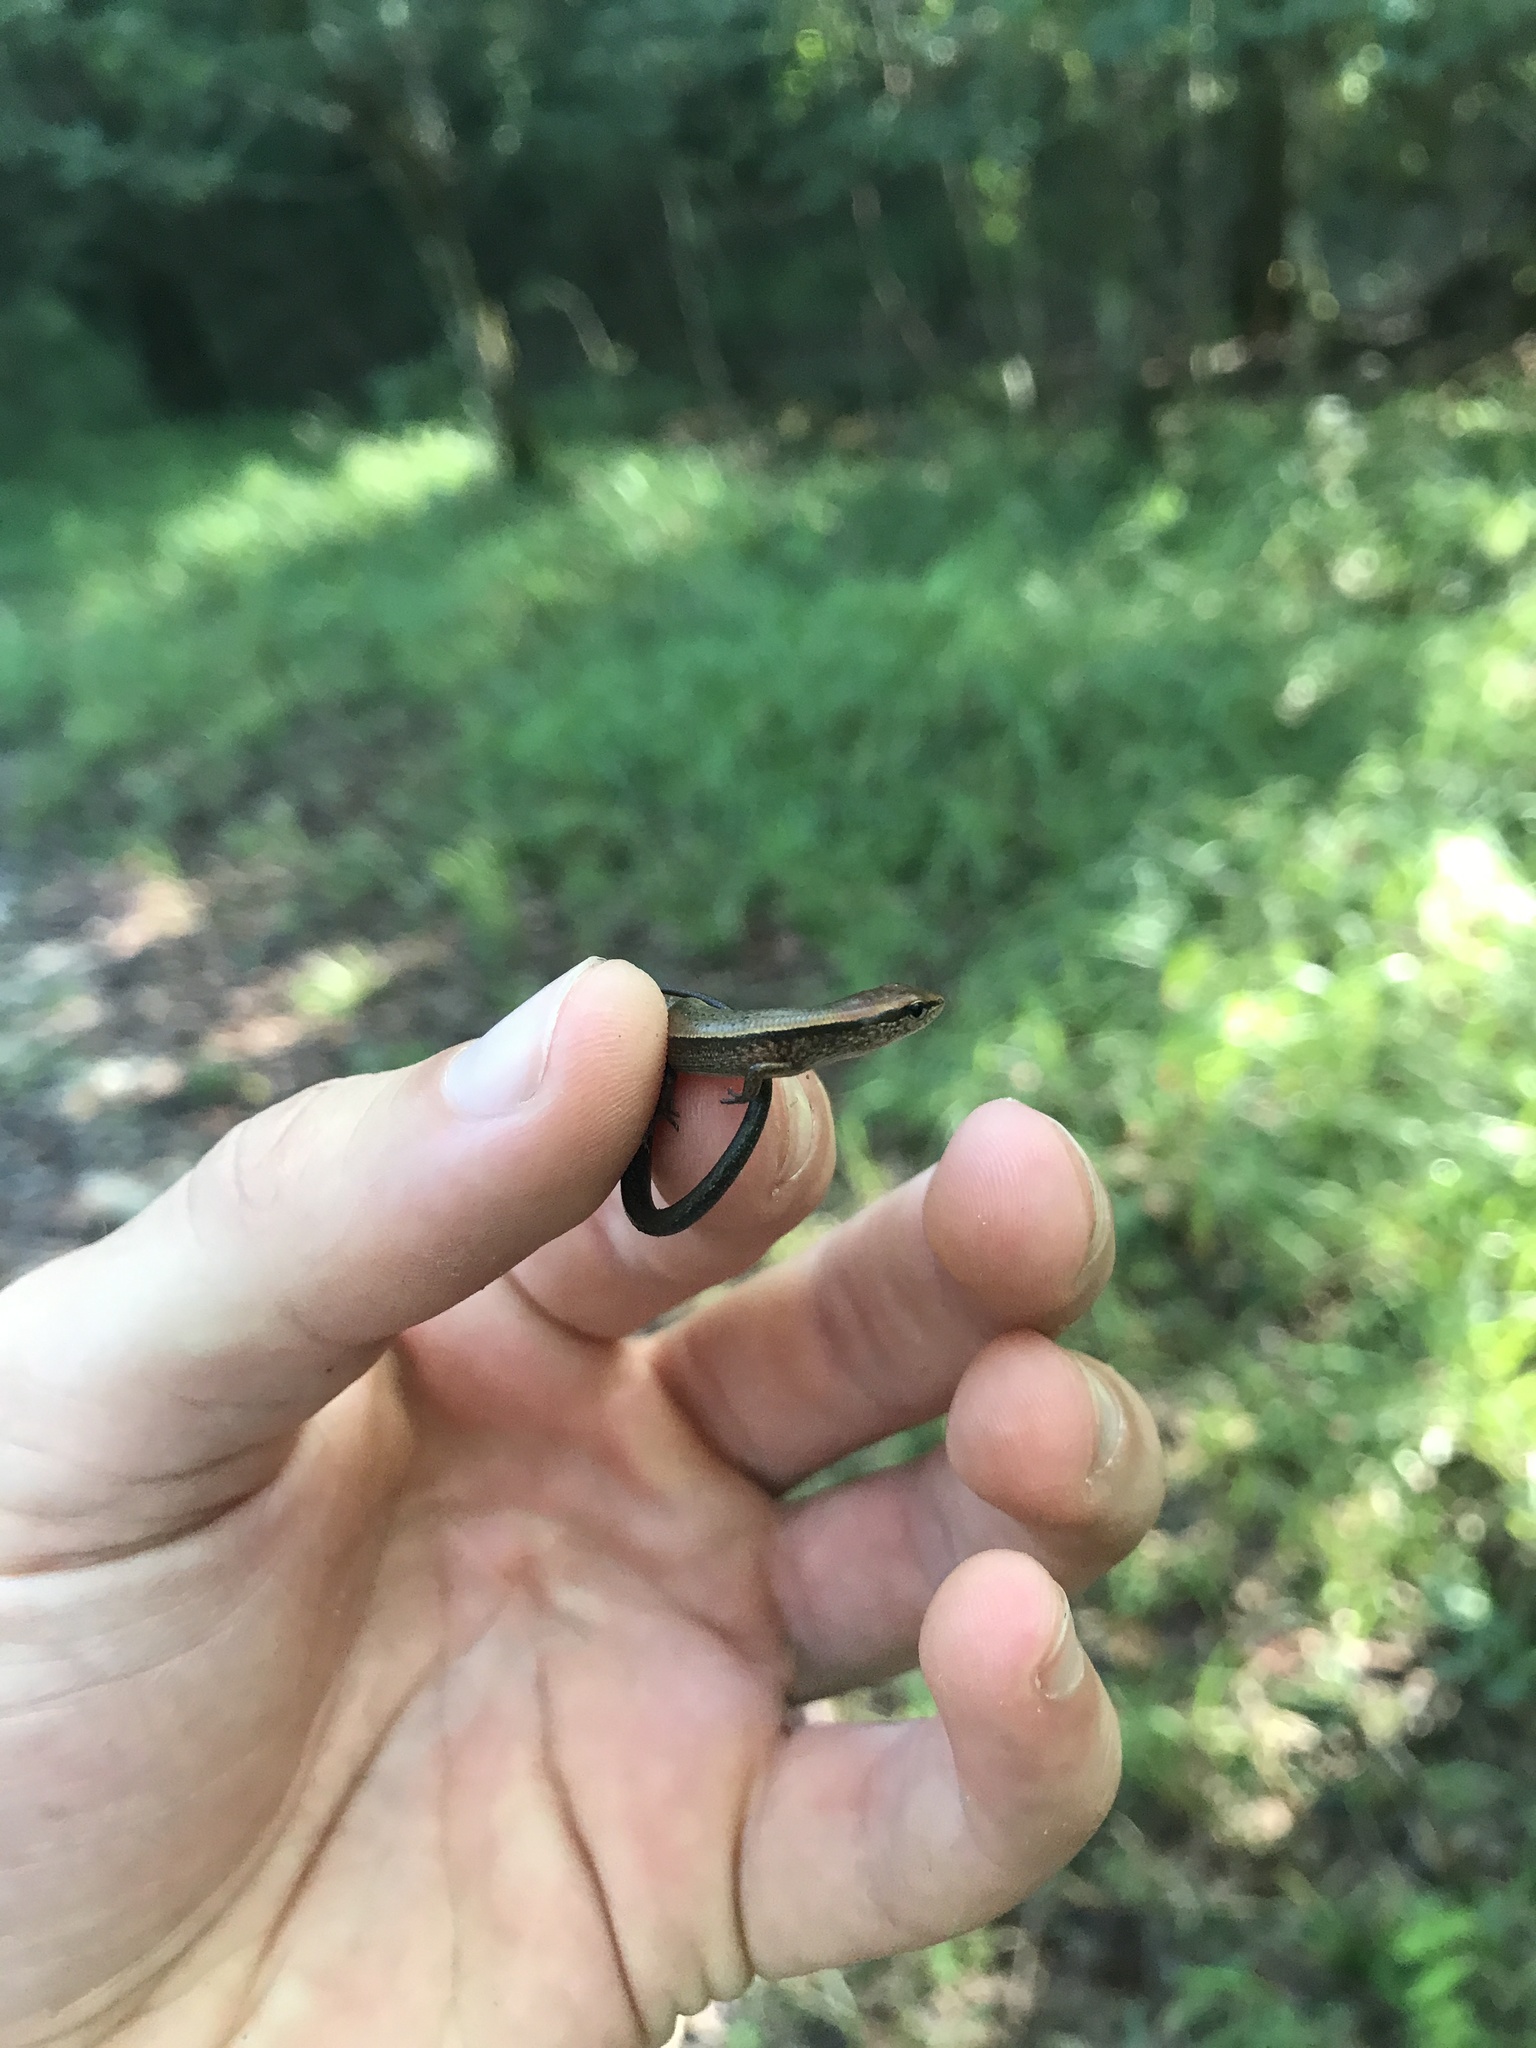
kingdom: Animalia
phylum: Chordata
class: Squamata
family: Scincidae
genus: Scincella
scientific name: Scincella lateralis
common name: Ground skink
